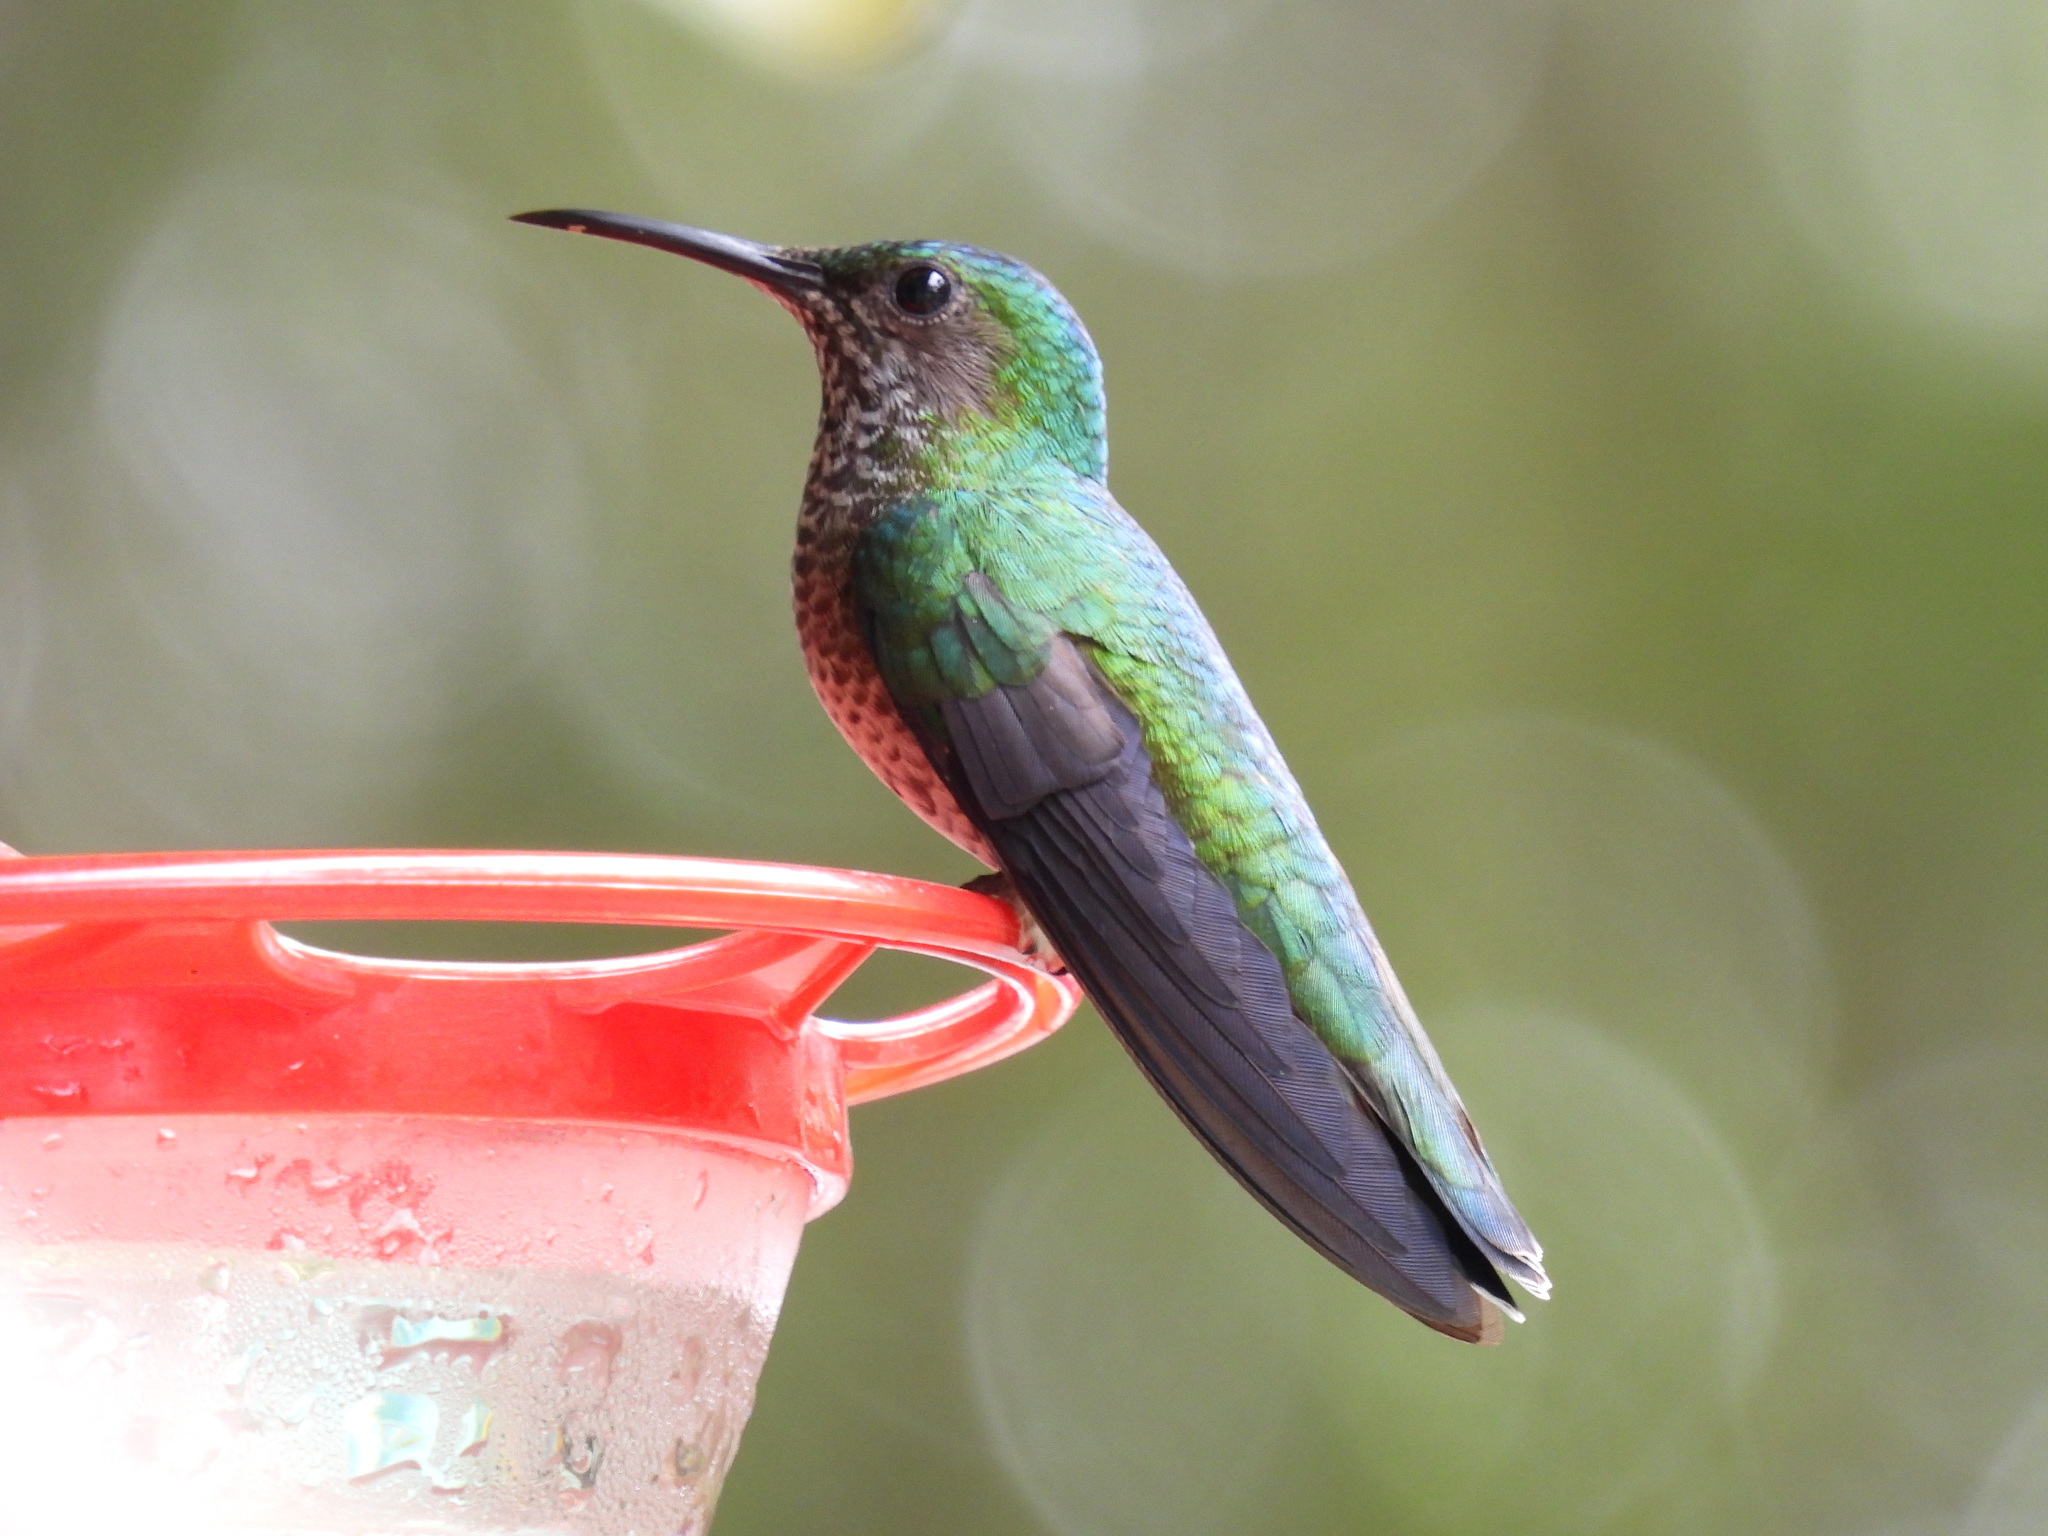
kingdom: Animalia
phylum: Chordata
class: Aves
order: Apodiformes
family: Trochilidae
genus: Florisuga
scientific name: Florisuga mellivora
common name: White-necked jacobin
